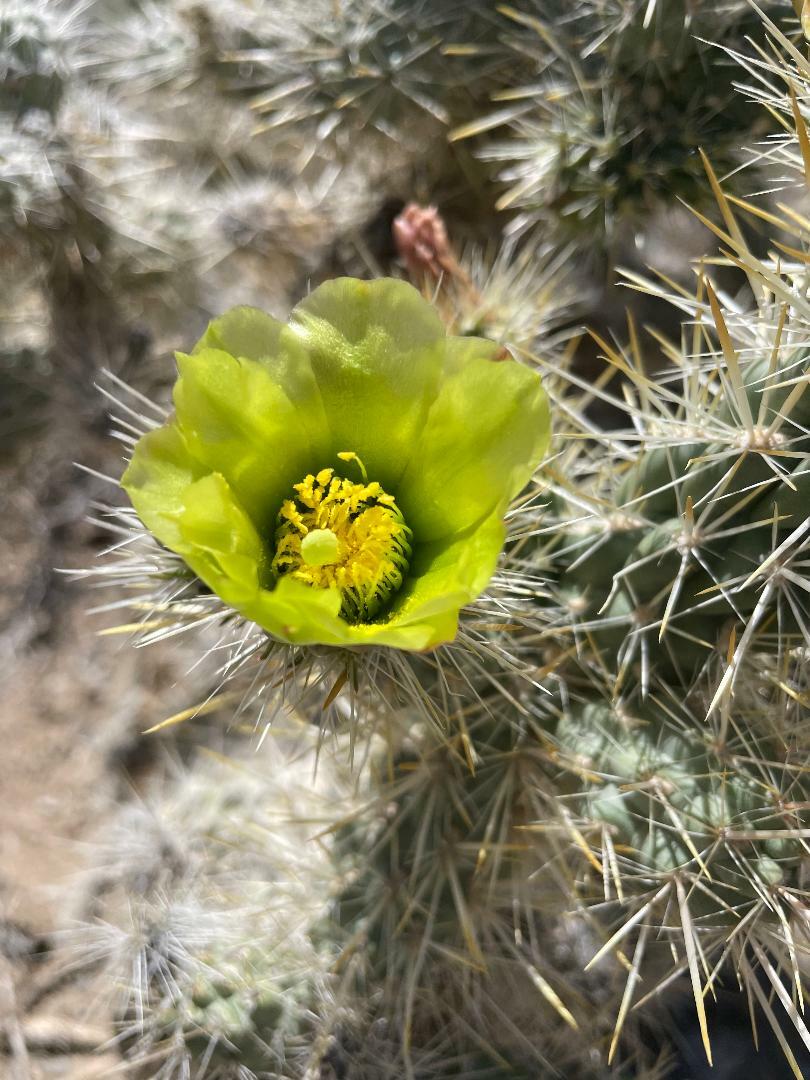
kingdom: Plantae
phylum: Tracheophyta
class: Magnoliopsida
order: Caryophyllales
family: Cactaceae
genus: Cylindropuntia
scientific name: Cylindropuntia echinocarpa
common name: Ground cholla
